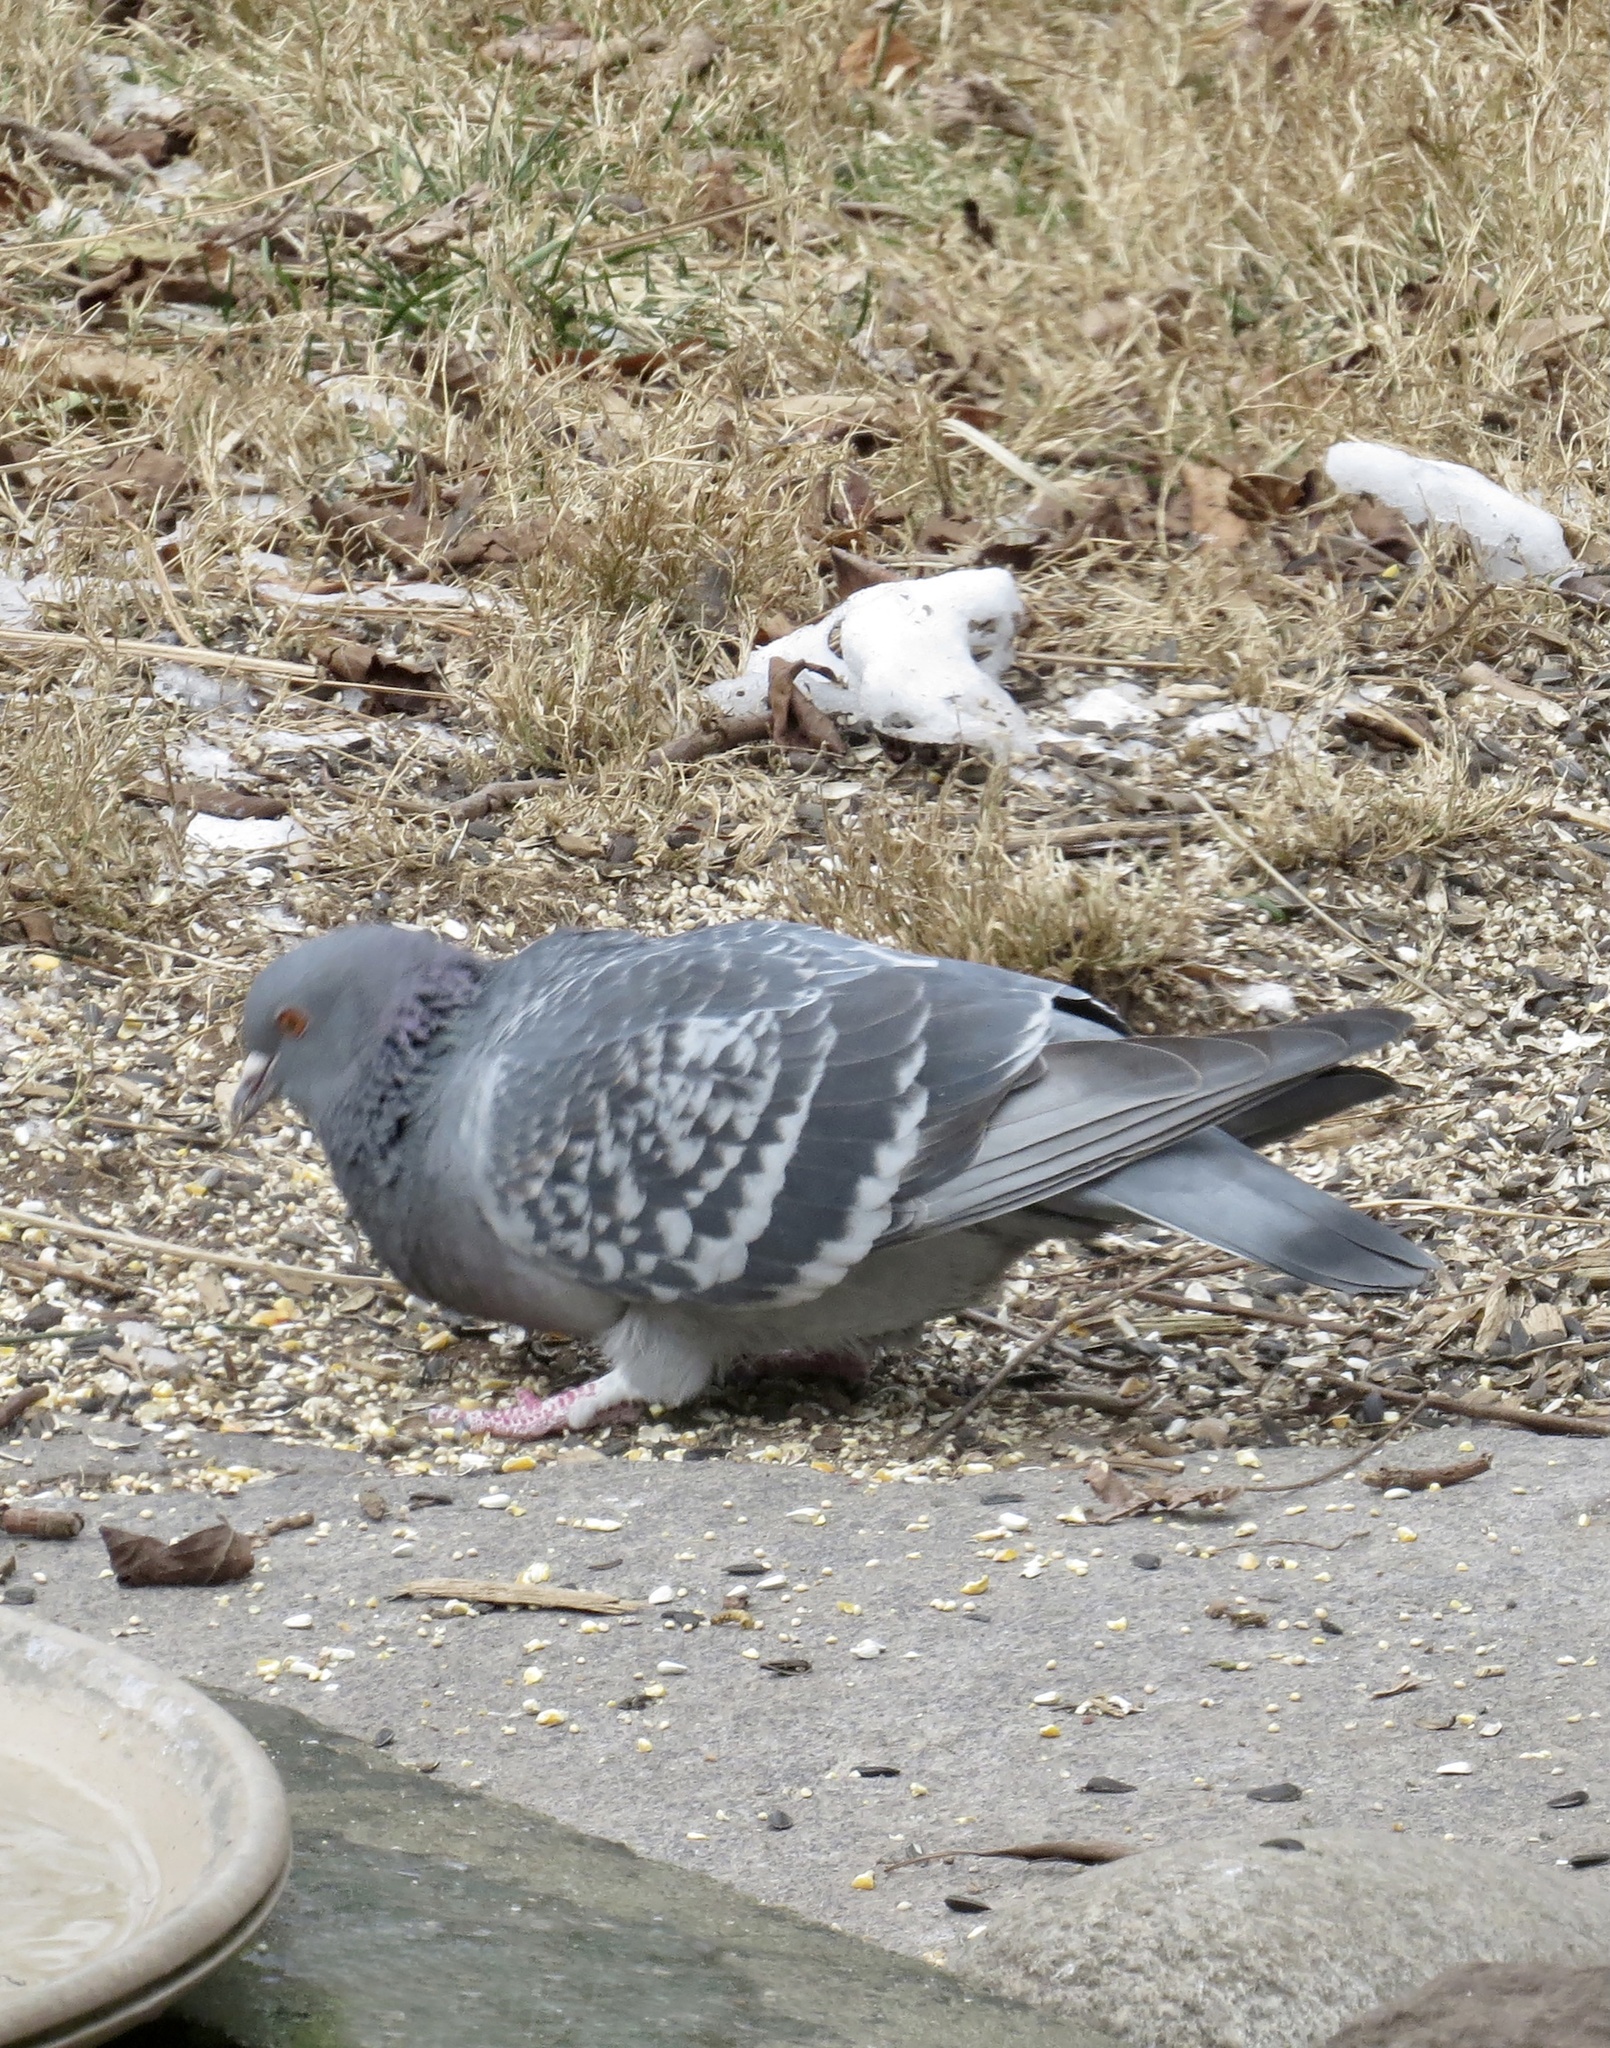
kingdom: Animalia
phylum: Chordata
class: Aves
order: Columbiformes
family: Columbidae
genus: Columba
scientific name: Columba livia
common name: Rock pigeon
